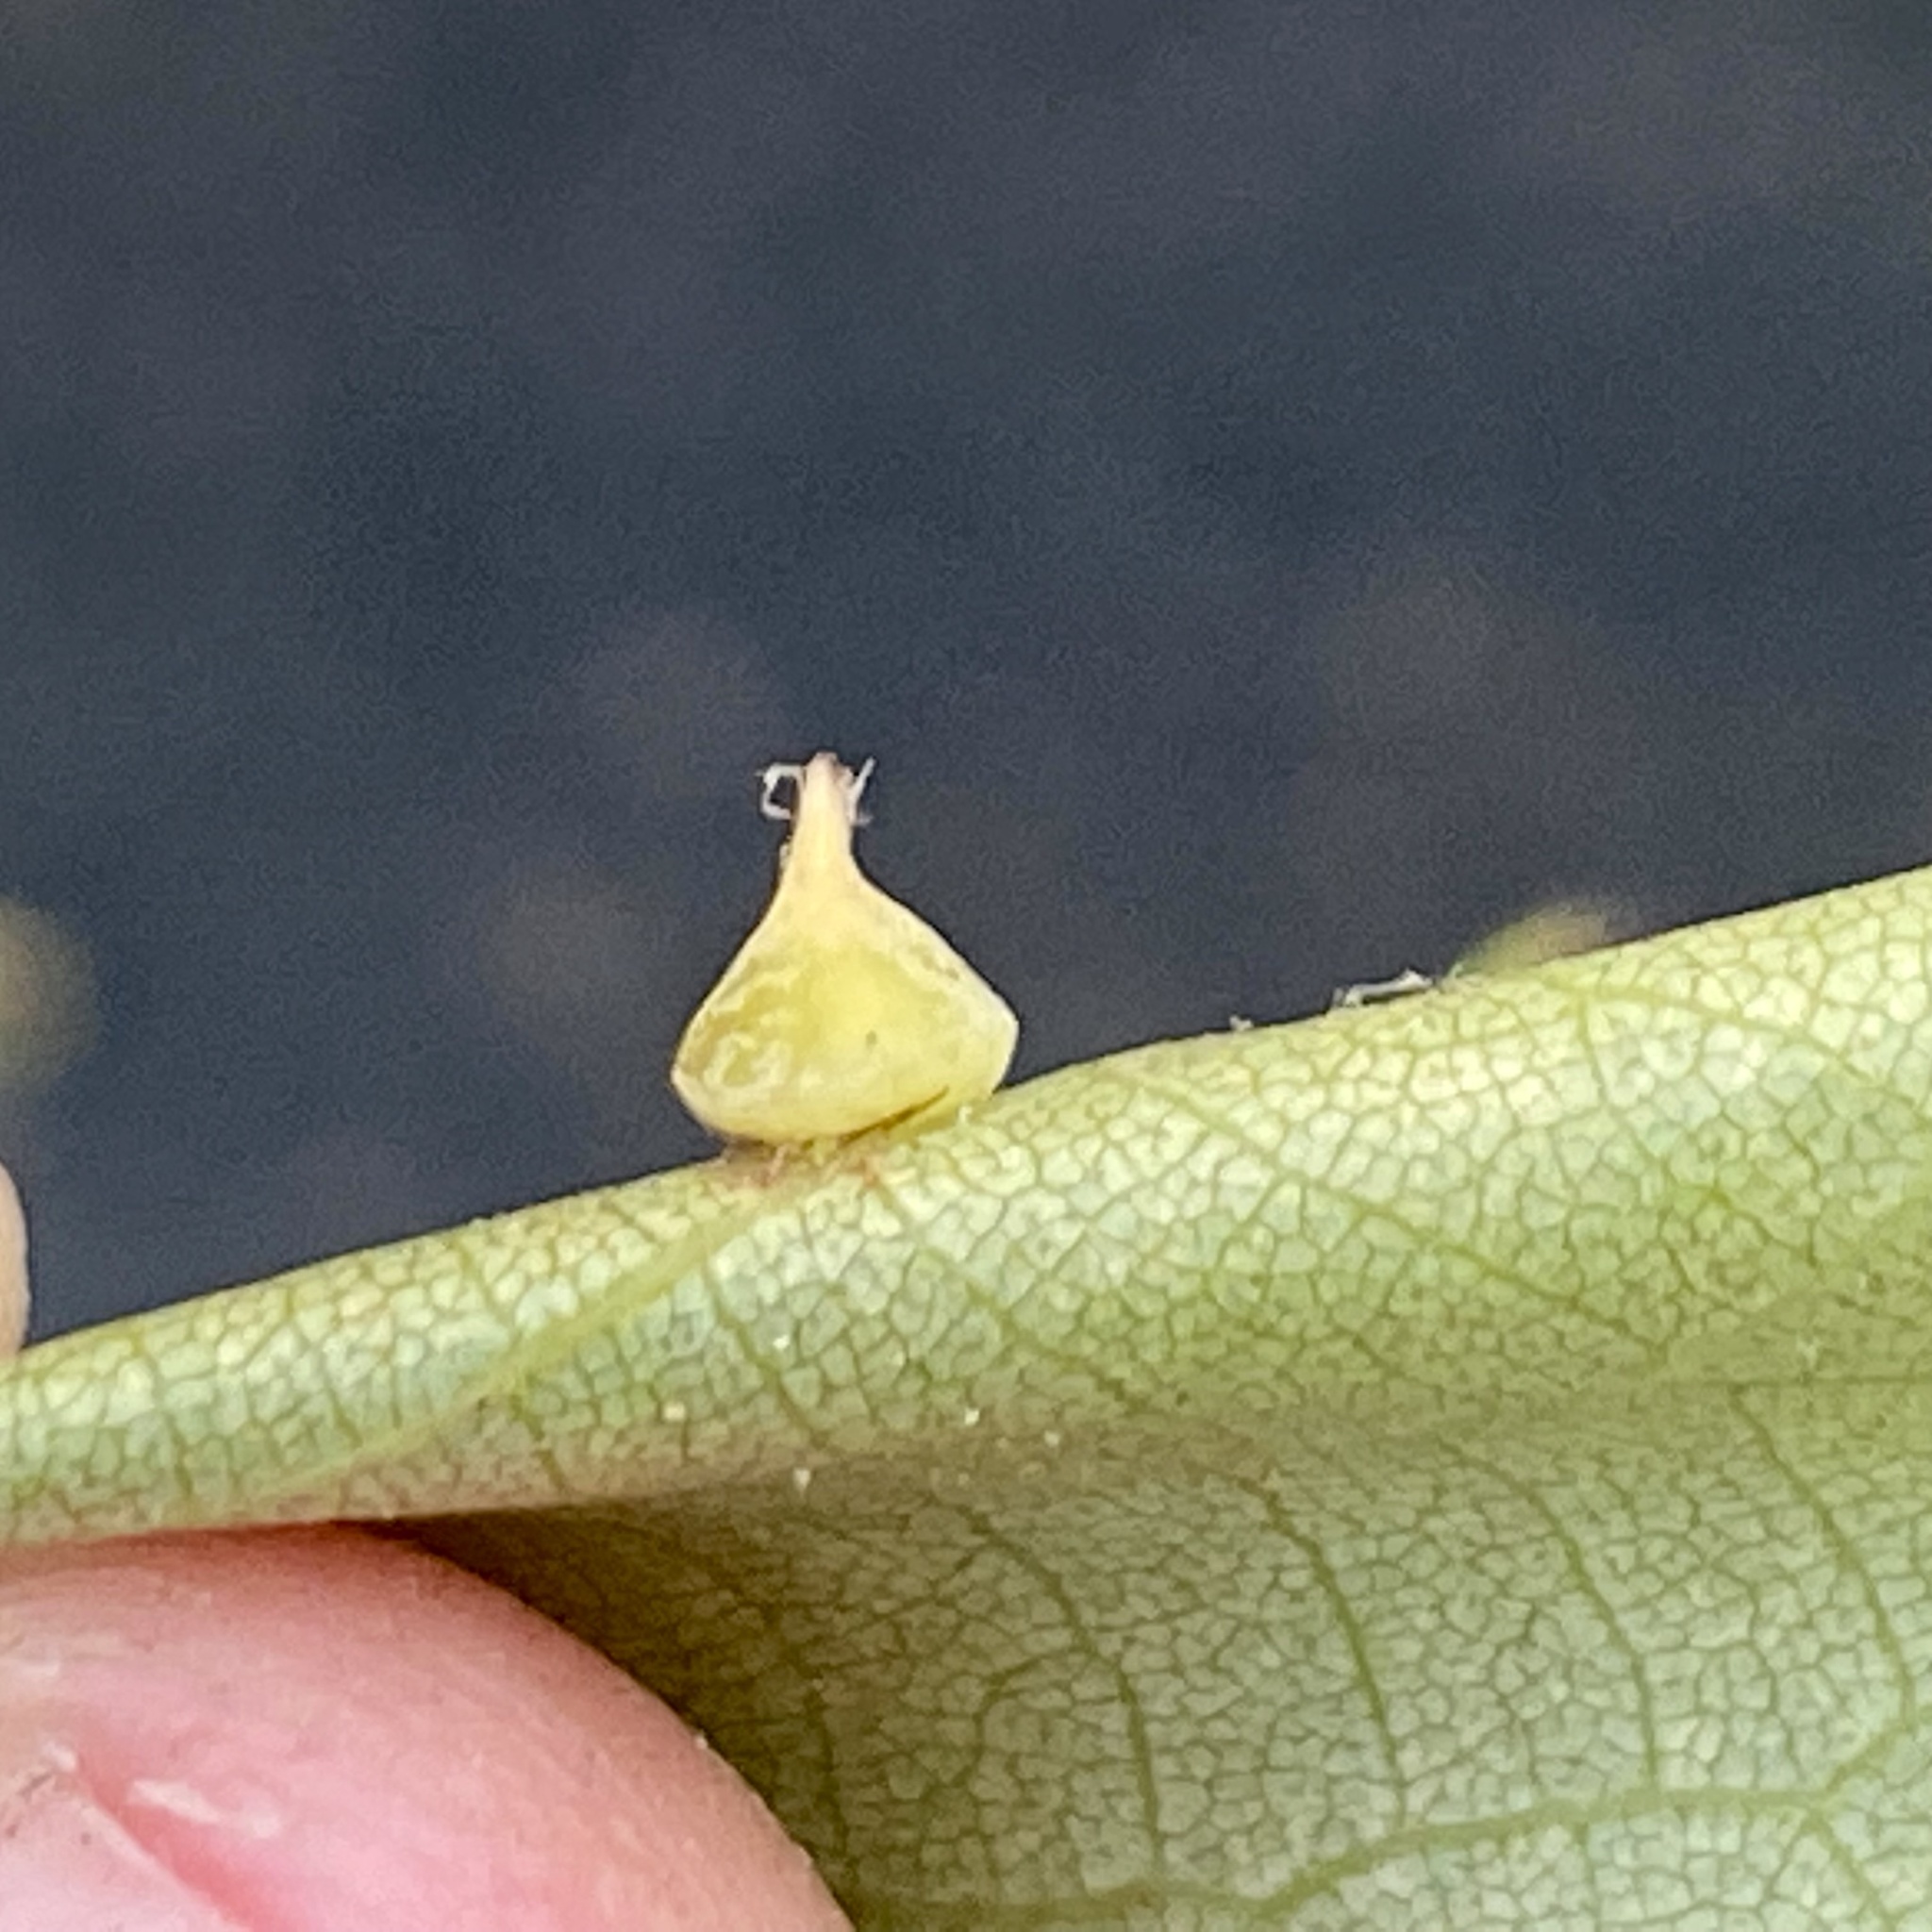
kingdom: Animalia
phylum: Arthropoda
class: Insecta
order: Diptera
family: Cecidomyiidae
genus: Caryomyia
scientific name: Caryomyia sanguinolenta
